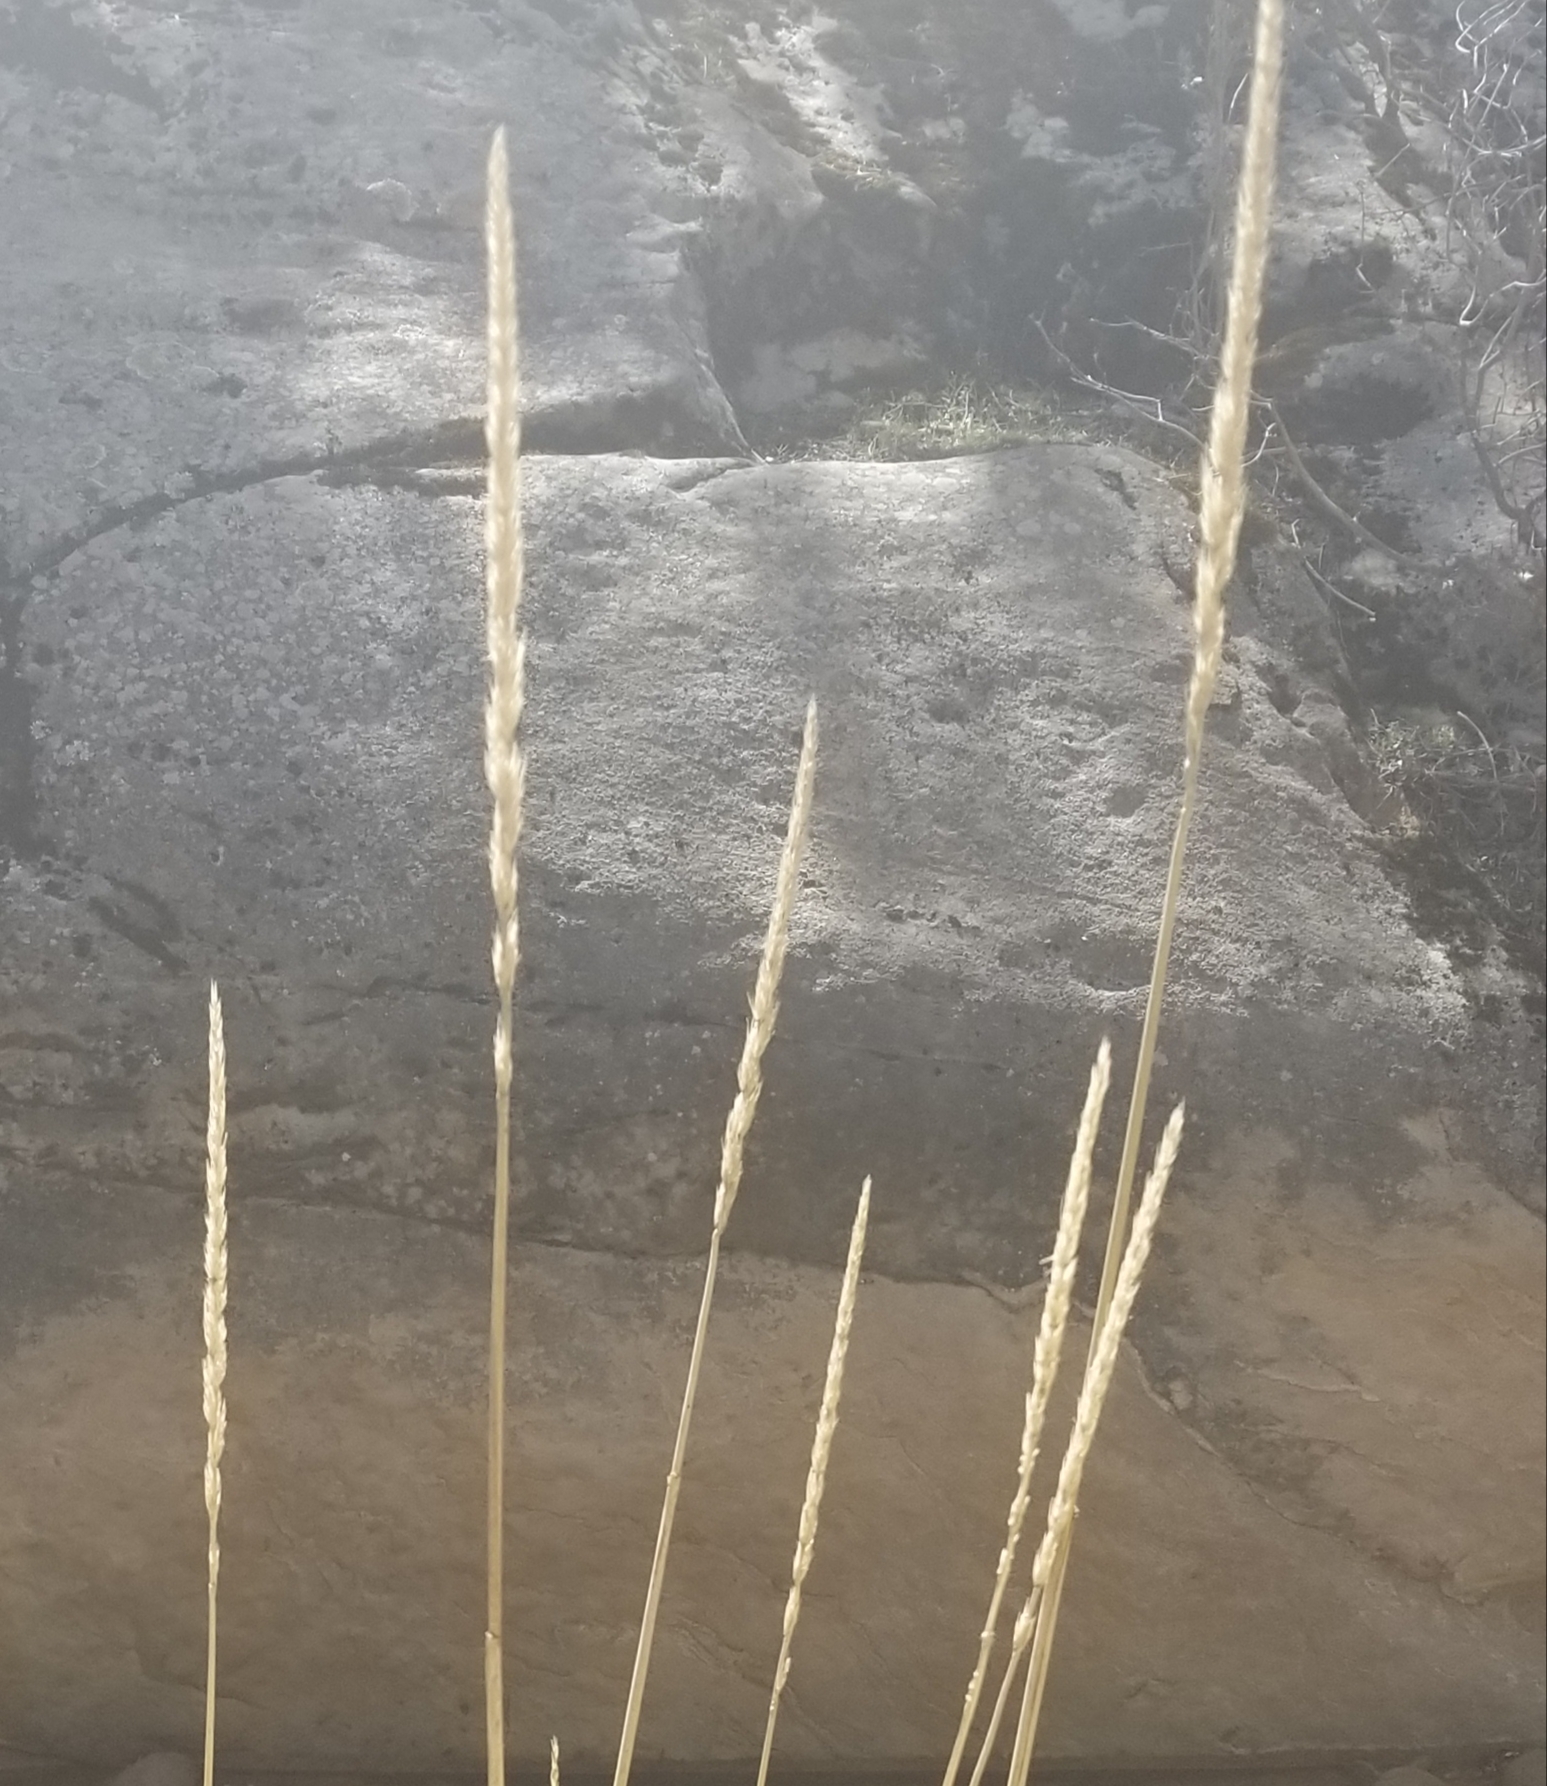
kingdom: Plantae
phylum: Tracheophyta
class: Liliopsida
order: Poales
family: Poaceae
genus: Leymus
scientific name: Leymus condensatus
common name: Giant wild rye
